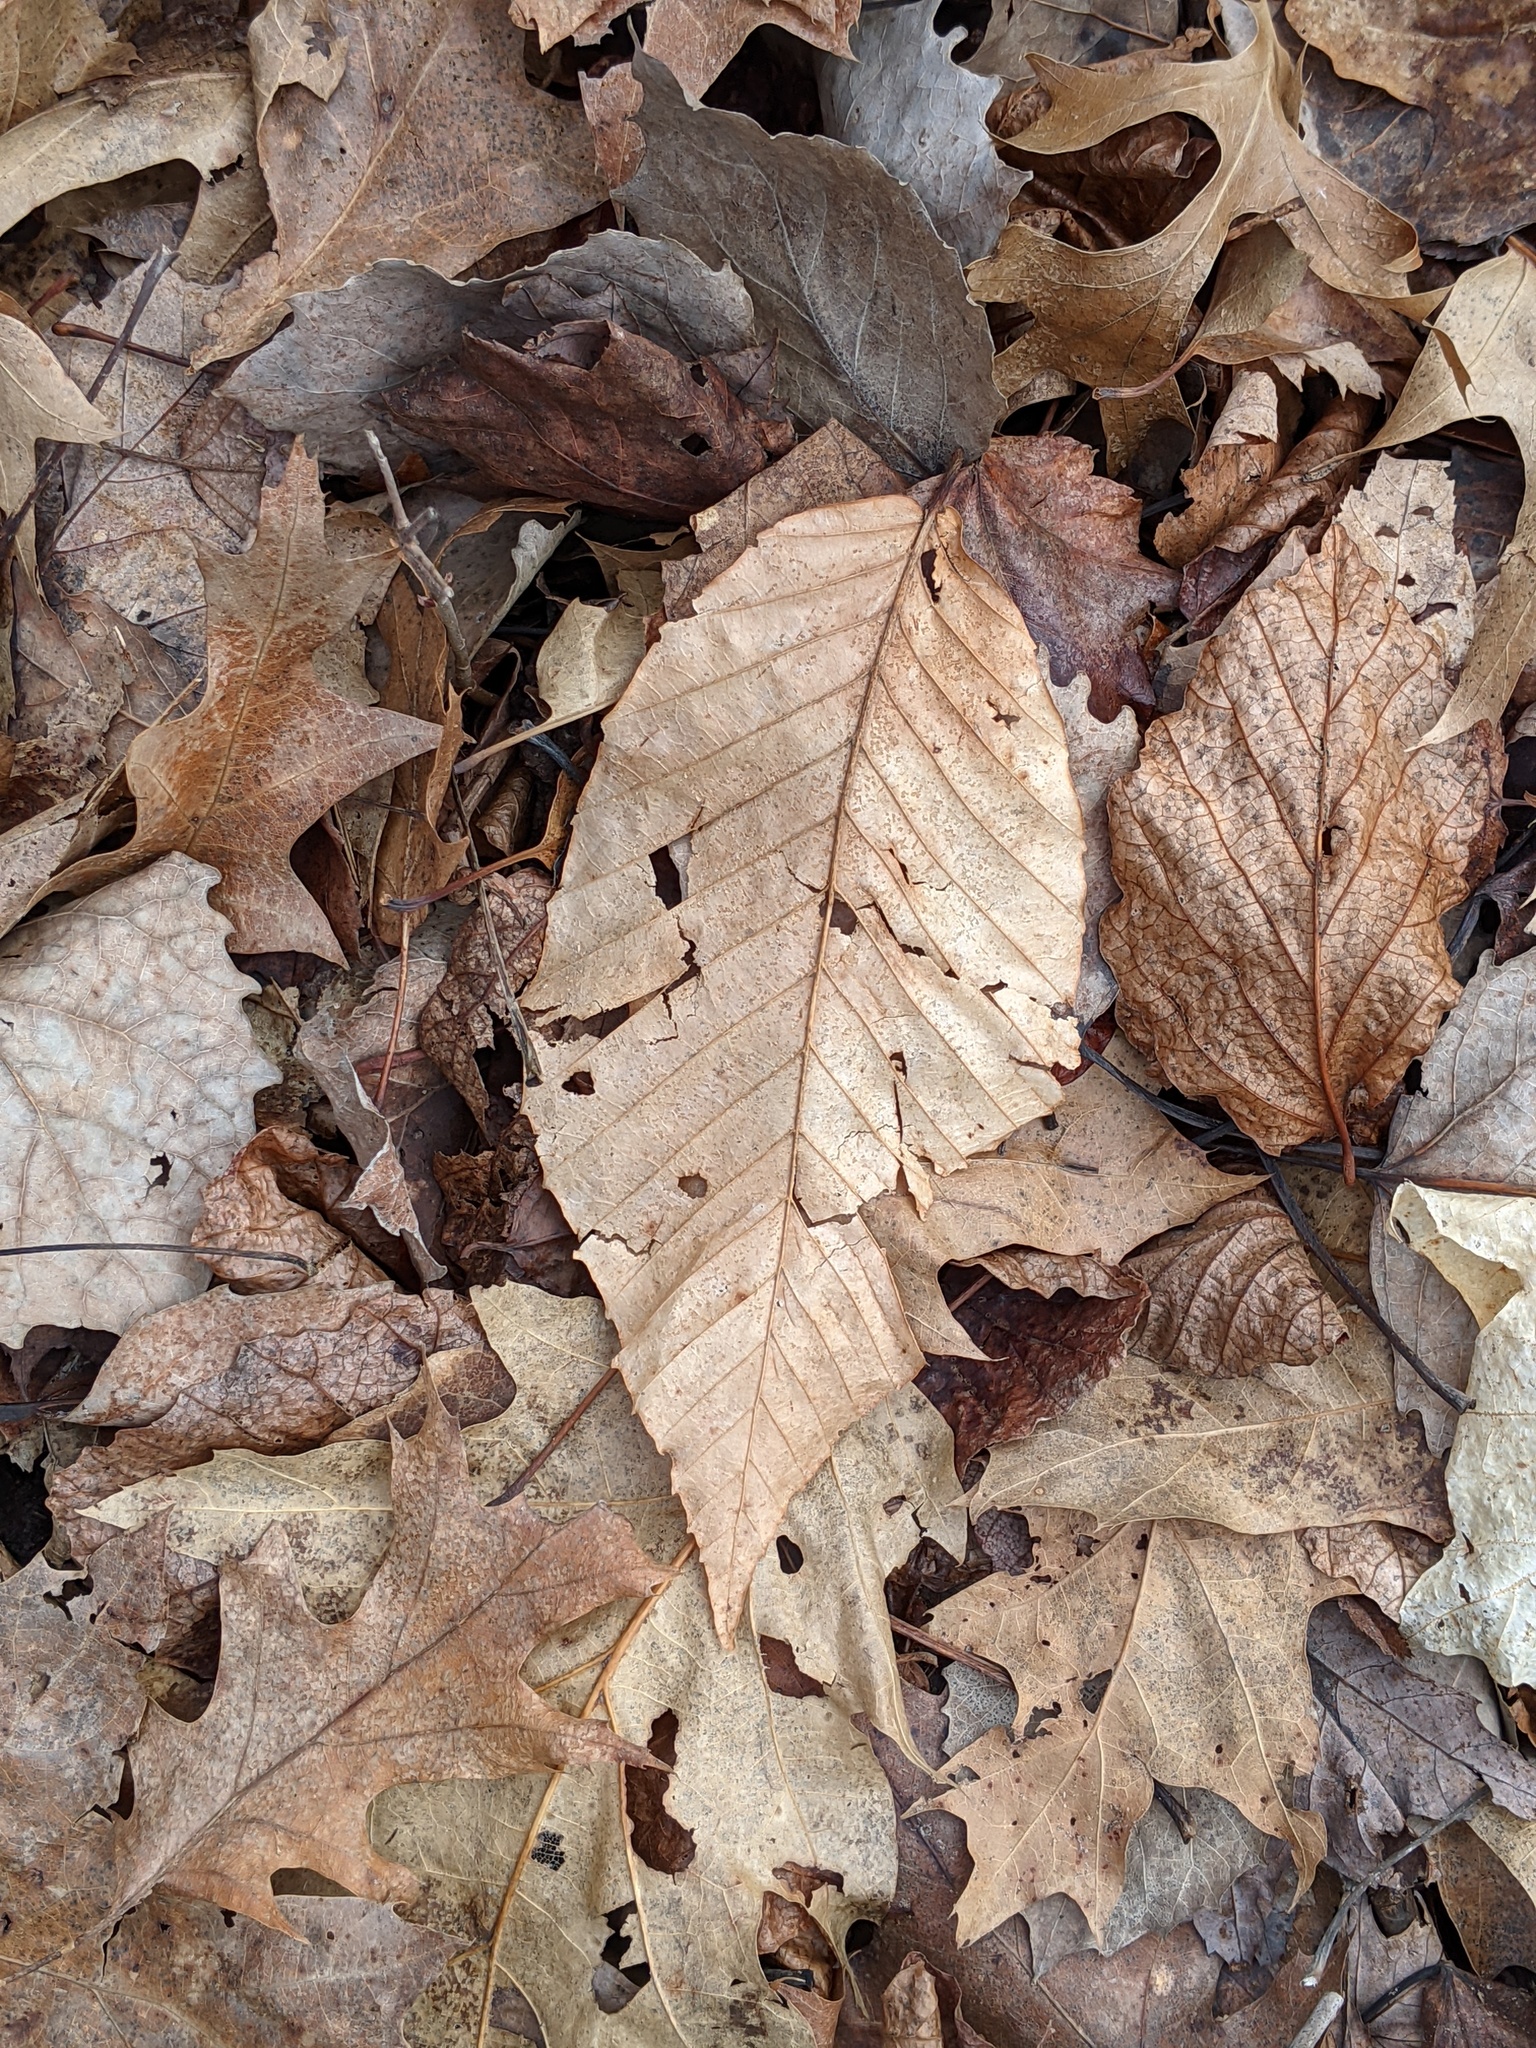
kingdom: Plantae
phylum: Tracheophyta
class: Magnoliopsida
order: Fagales
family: Fagaceae
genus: Fagus
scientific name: Fagus grandifolia
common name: American beech
